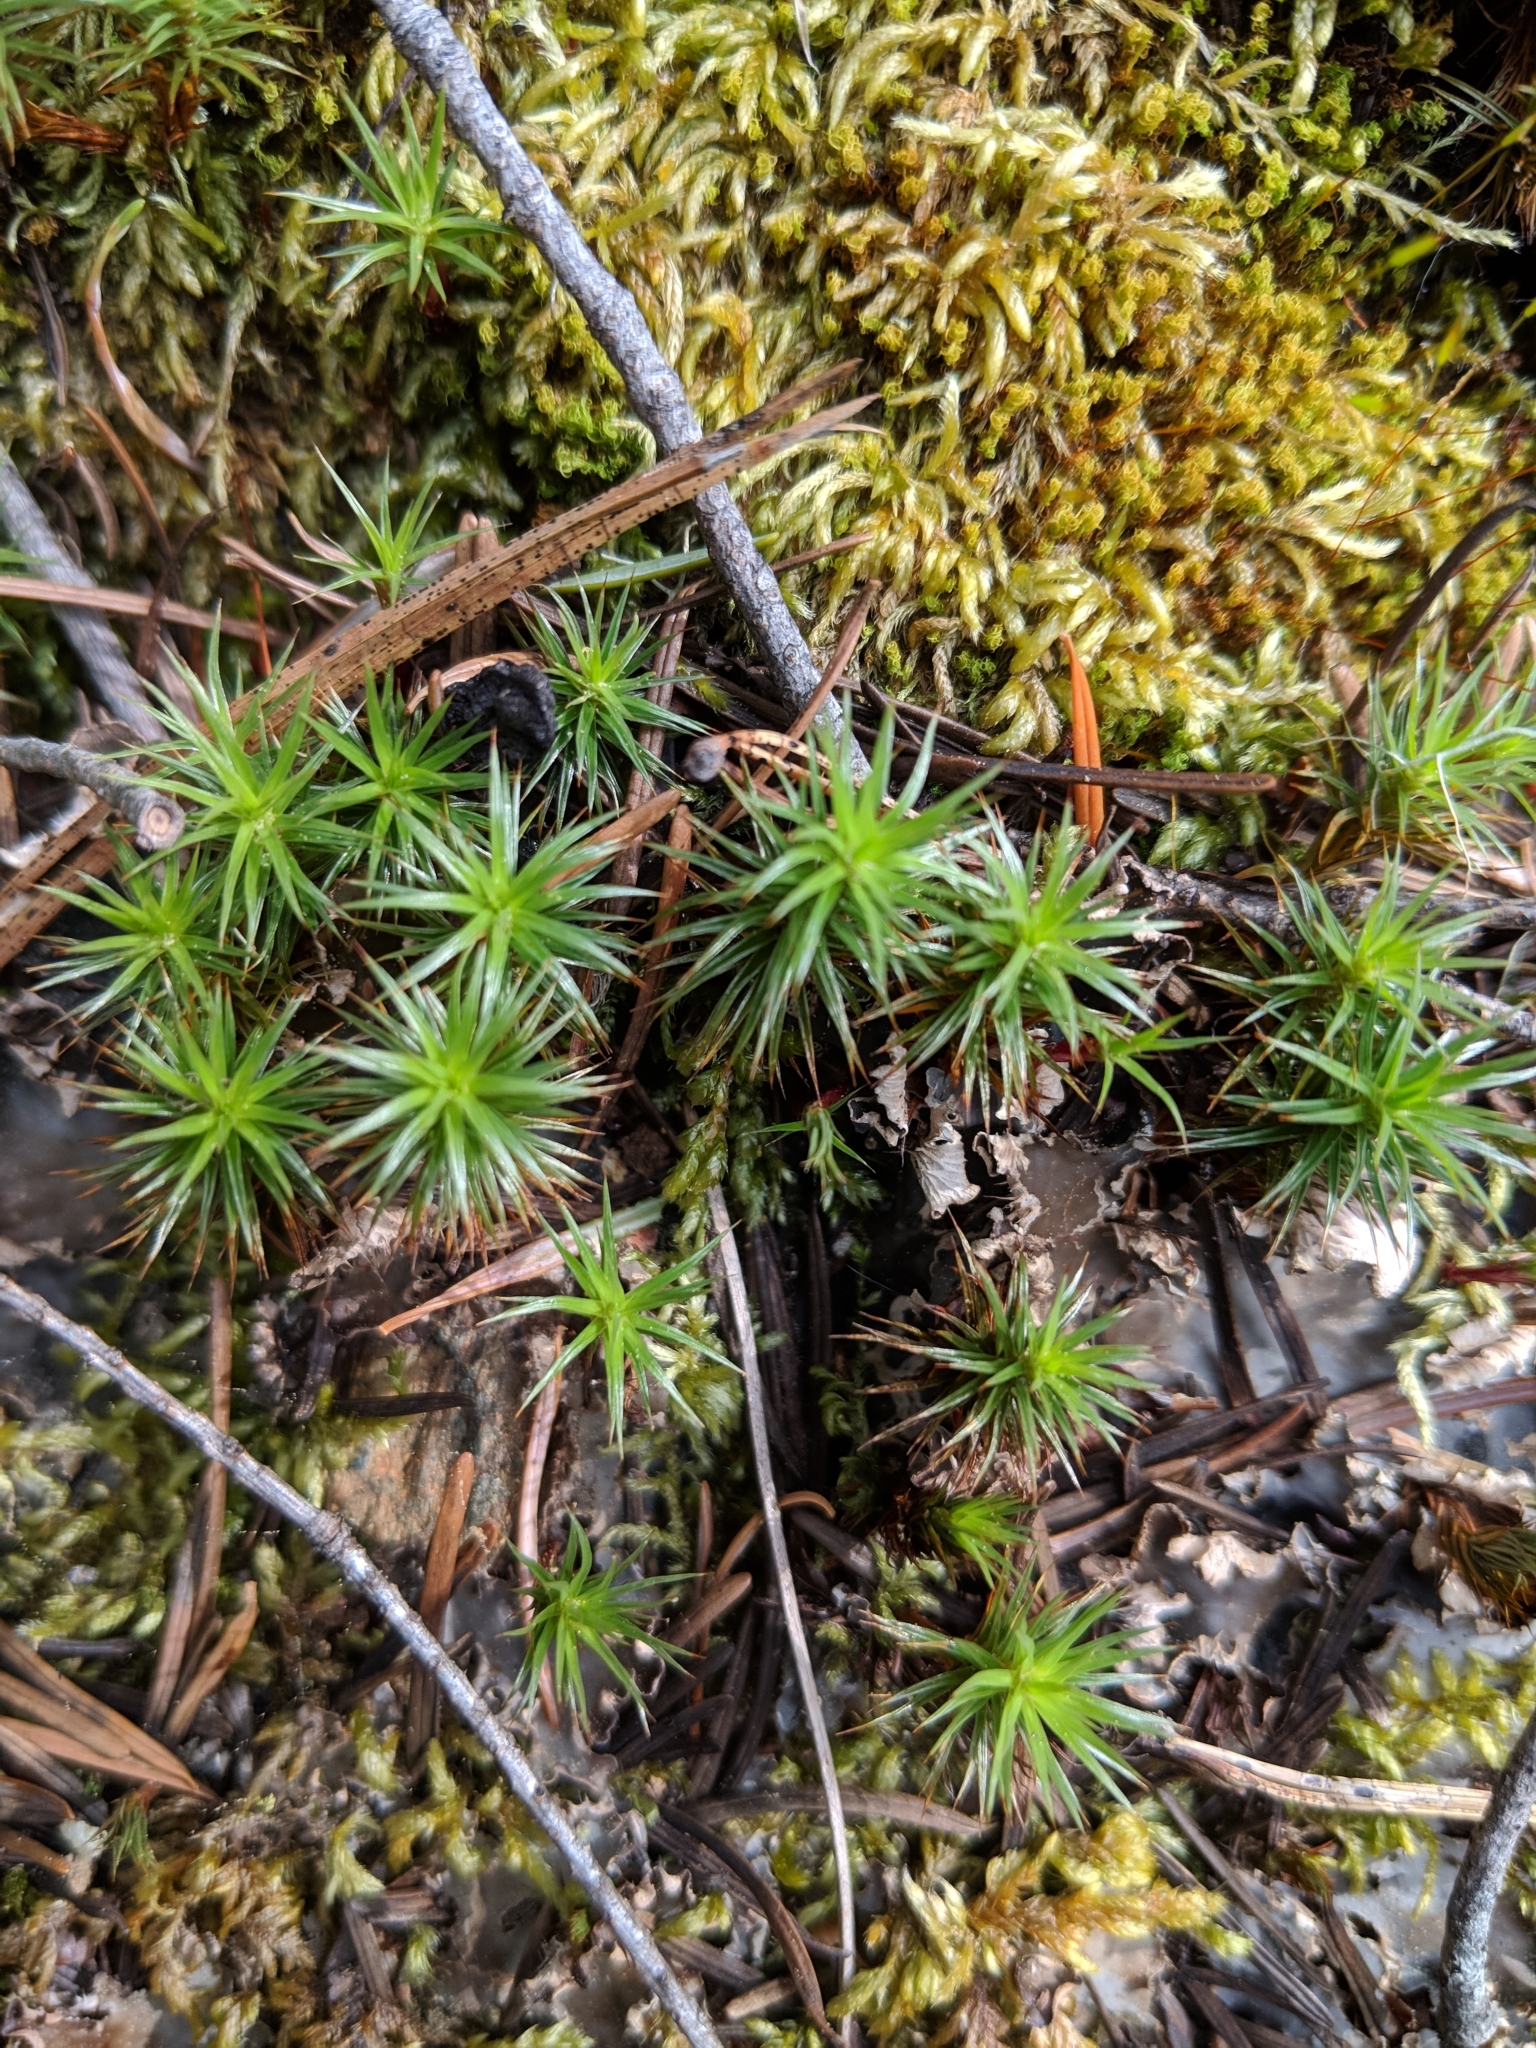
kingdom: Plantae
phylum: Bryophyta
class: Polytrichopsida
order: Polytrichales
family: Polytrichaceae
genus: Polytrichum
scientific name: Polytrichum juniperinum
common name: Juniper haircap moss
